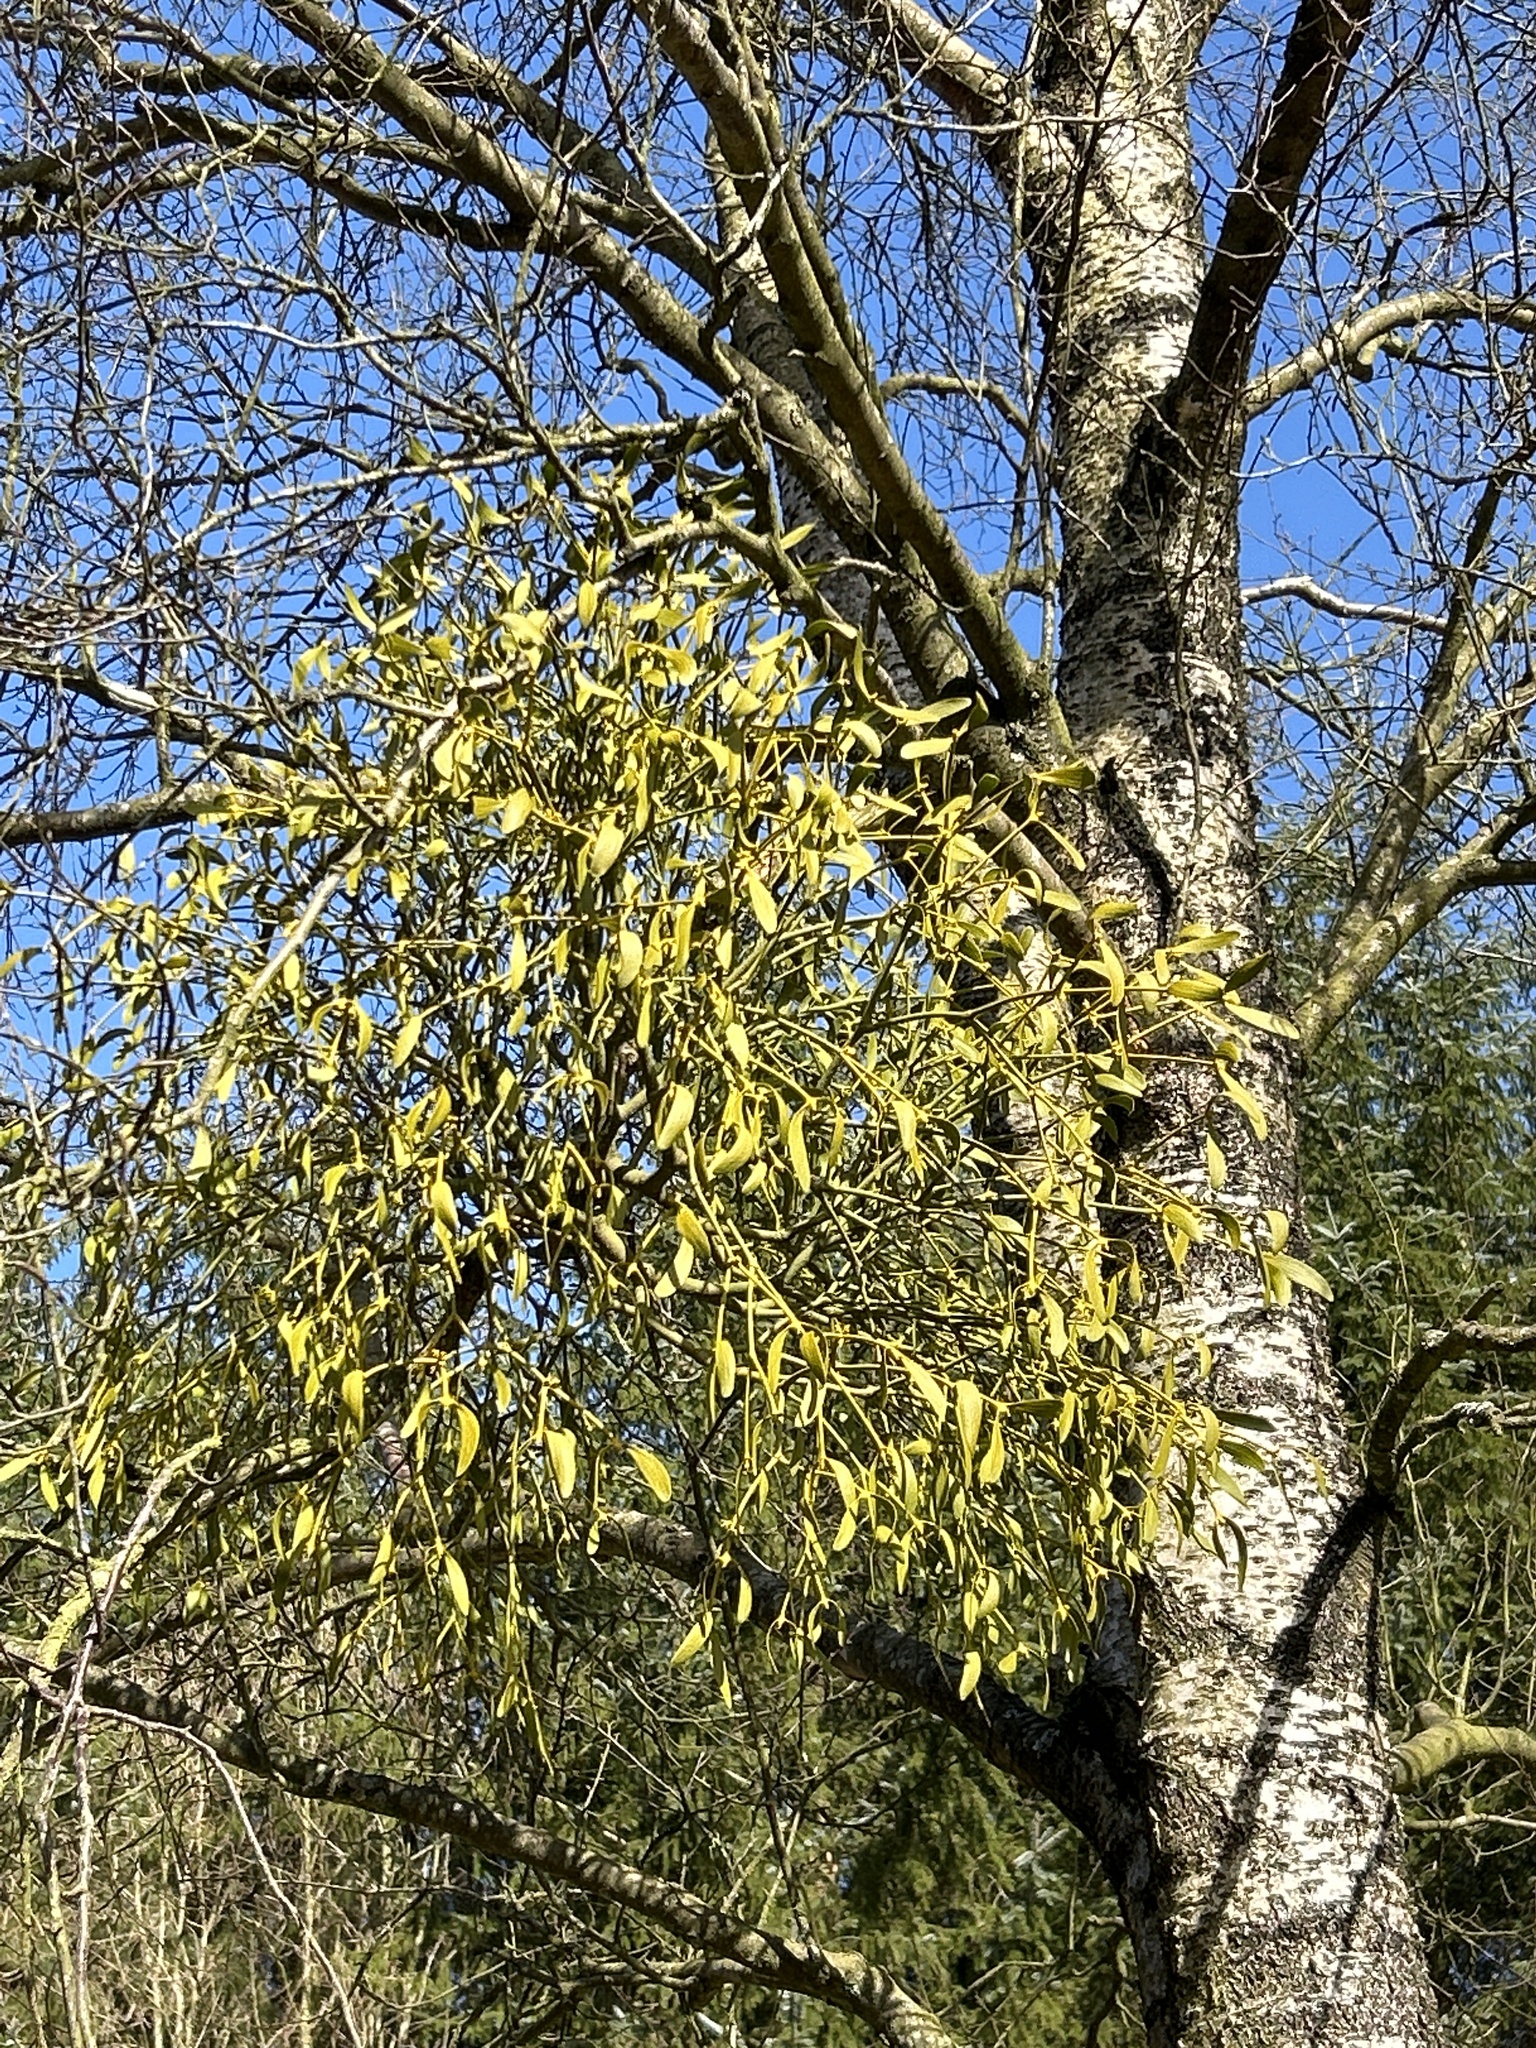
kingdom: Plantae
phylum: Tracheophyta
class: Magnoliopsida
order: Santalales
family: Viscaceae
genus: Viscum
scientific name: Viscum album
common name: Mistletoe
